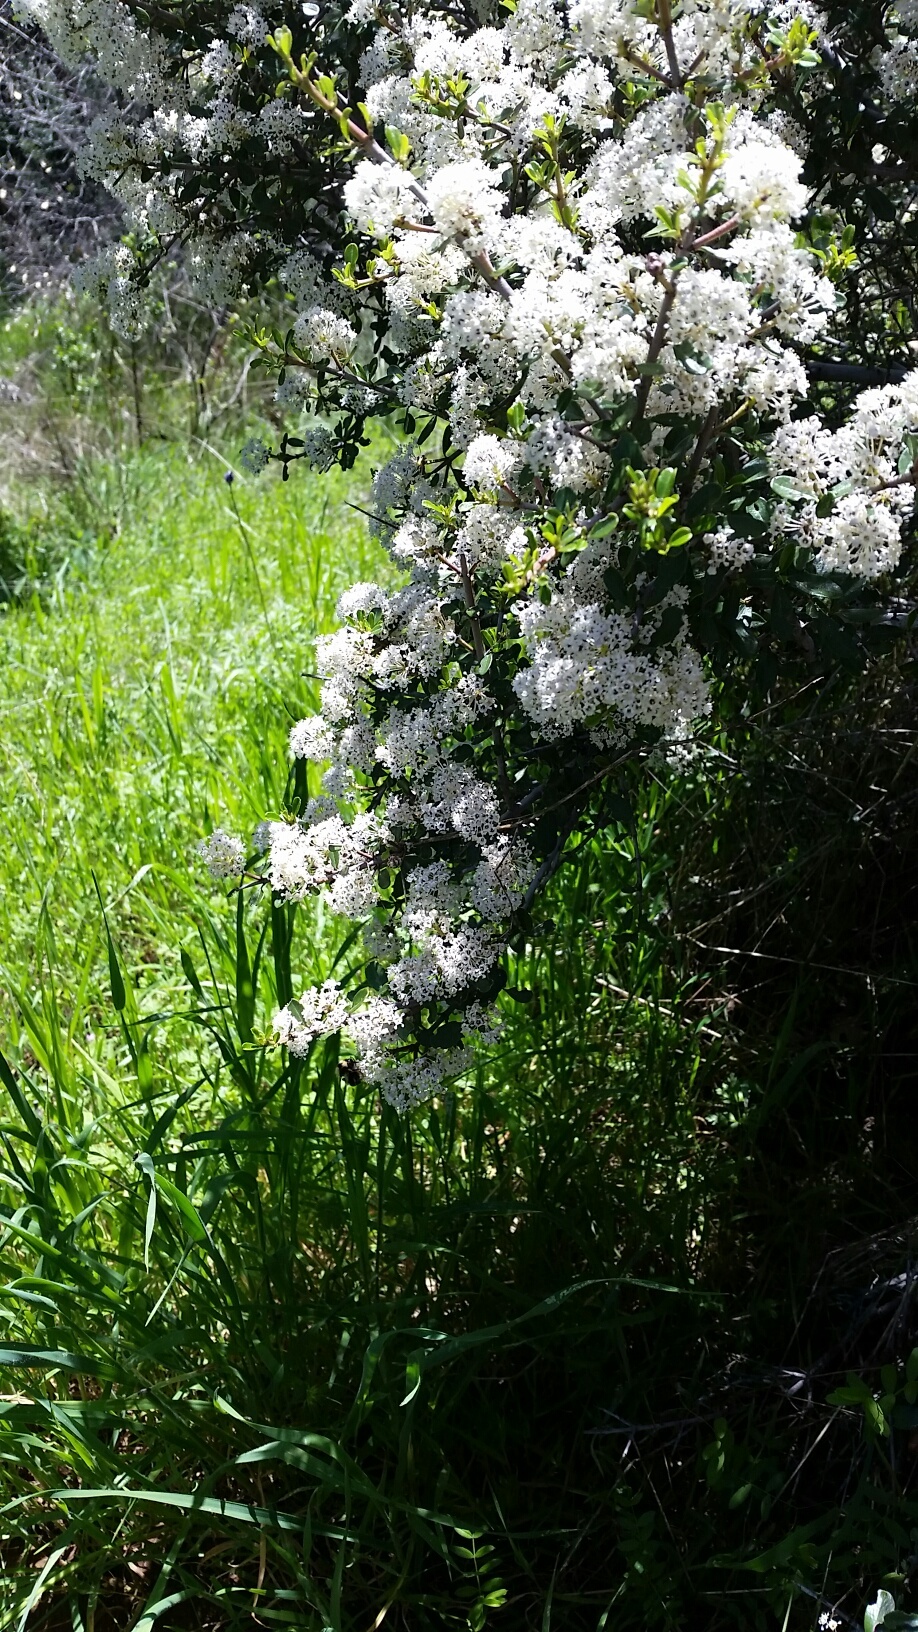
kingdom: Plantae
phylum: Tracheophyta
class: Magnoliopsida
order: Rosales
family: Rhamnaceae
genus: Ceanothus
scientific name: Ceanothus cuneatus
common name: Cuneate ceanothus
